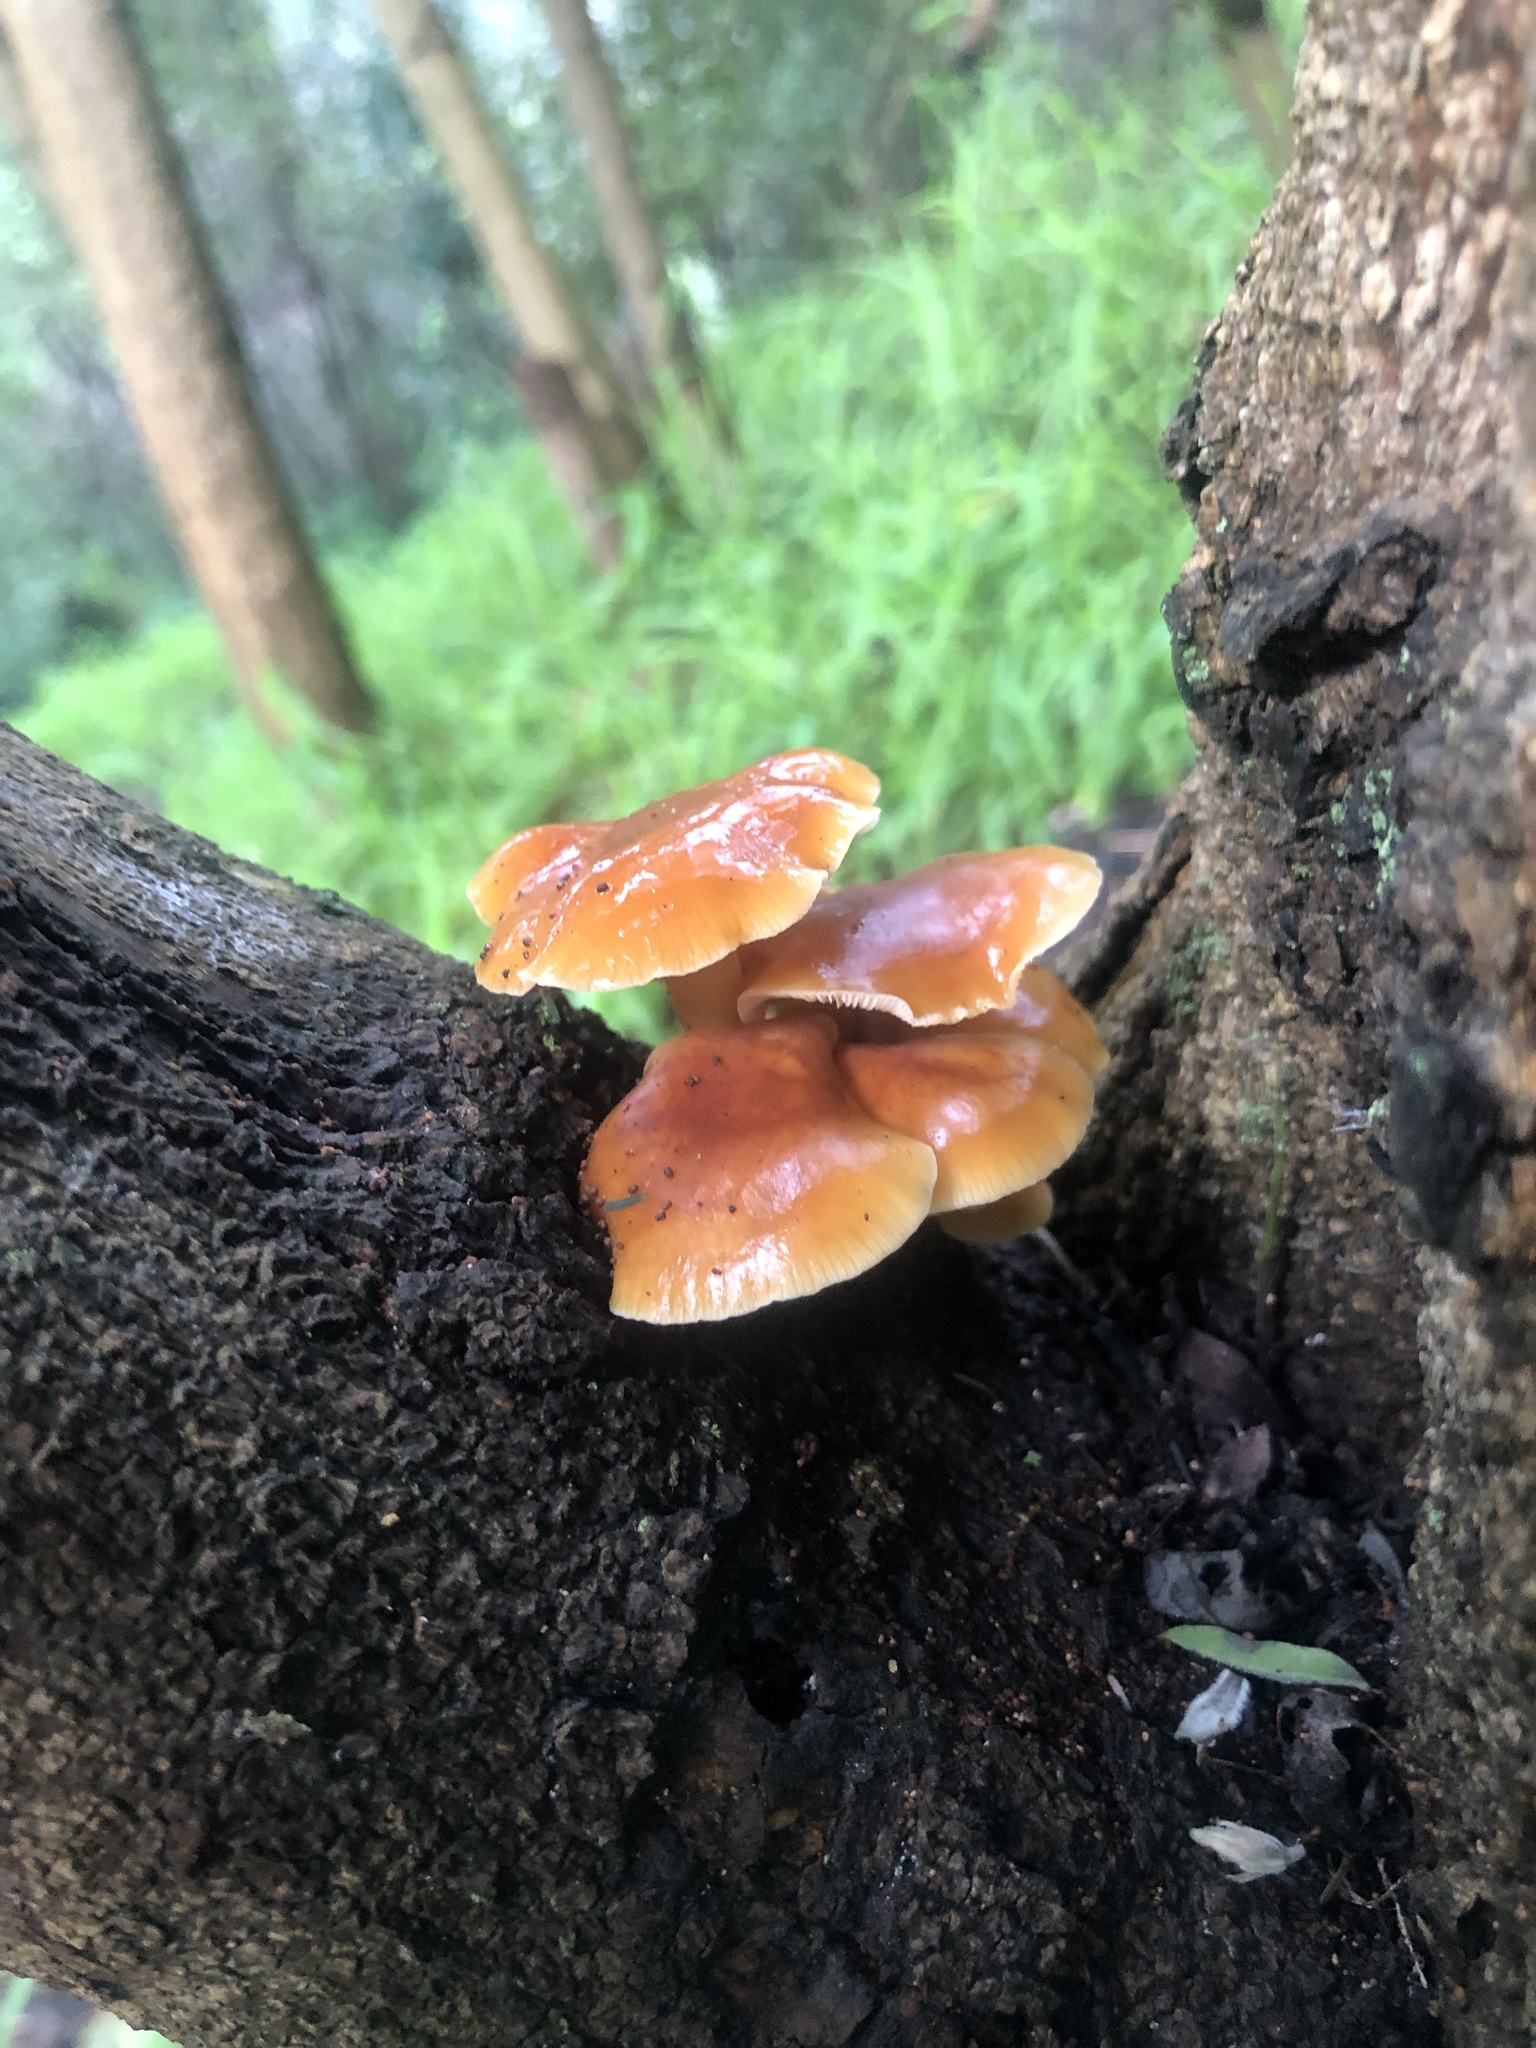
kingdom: Fungi
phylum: Basidiomycota
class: Agaricomycetes
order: Agaricales
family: Physalacriaceae
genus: Flammulina
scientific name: Flammulina velutipes
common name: Velvet shank
